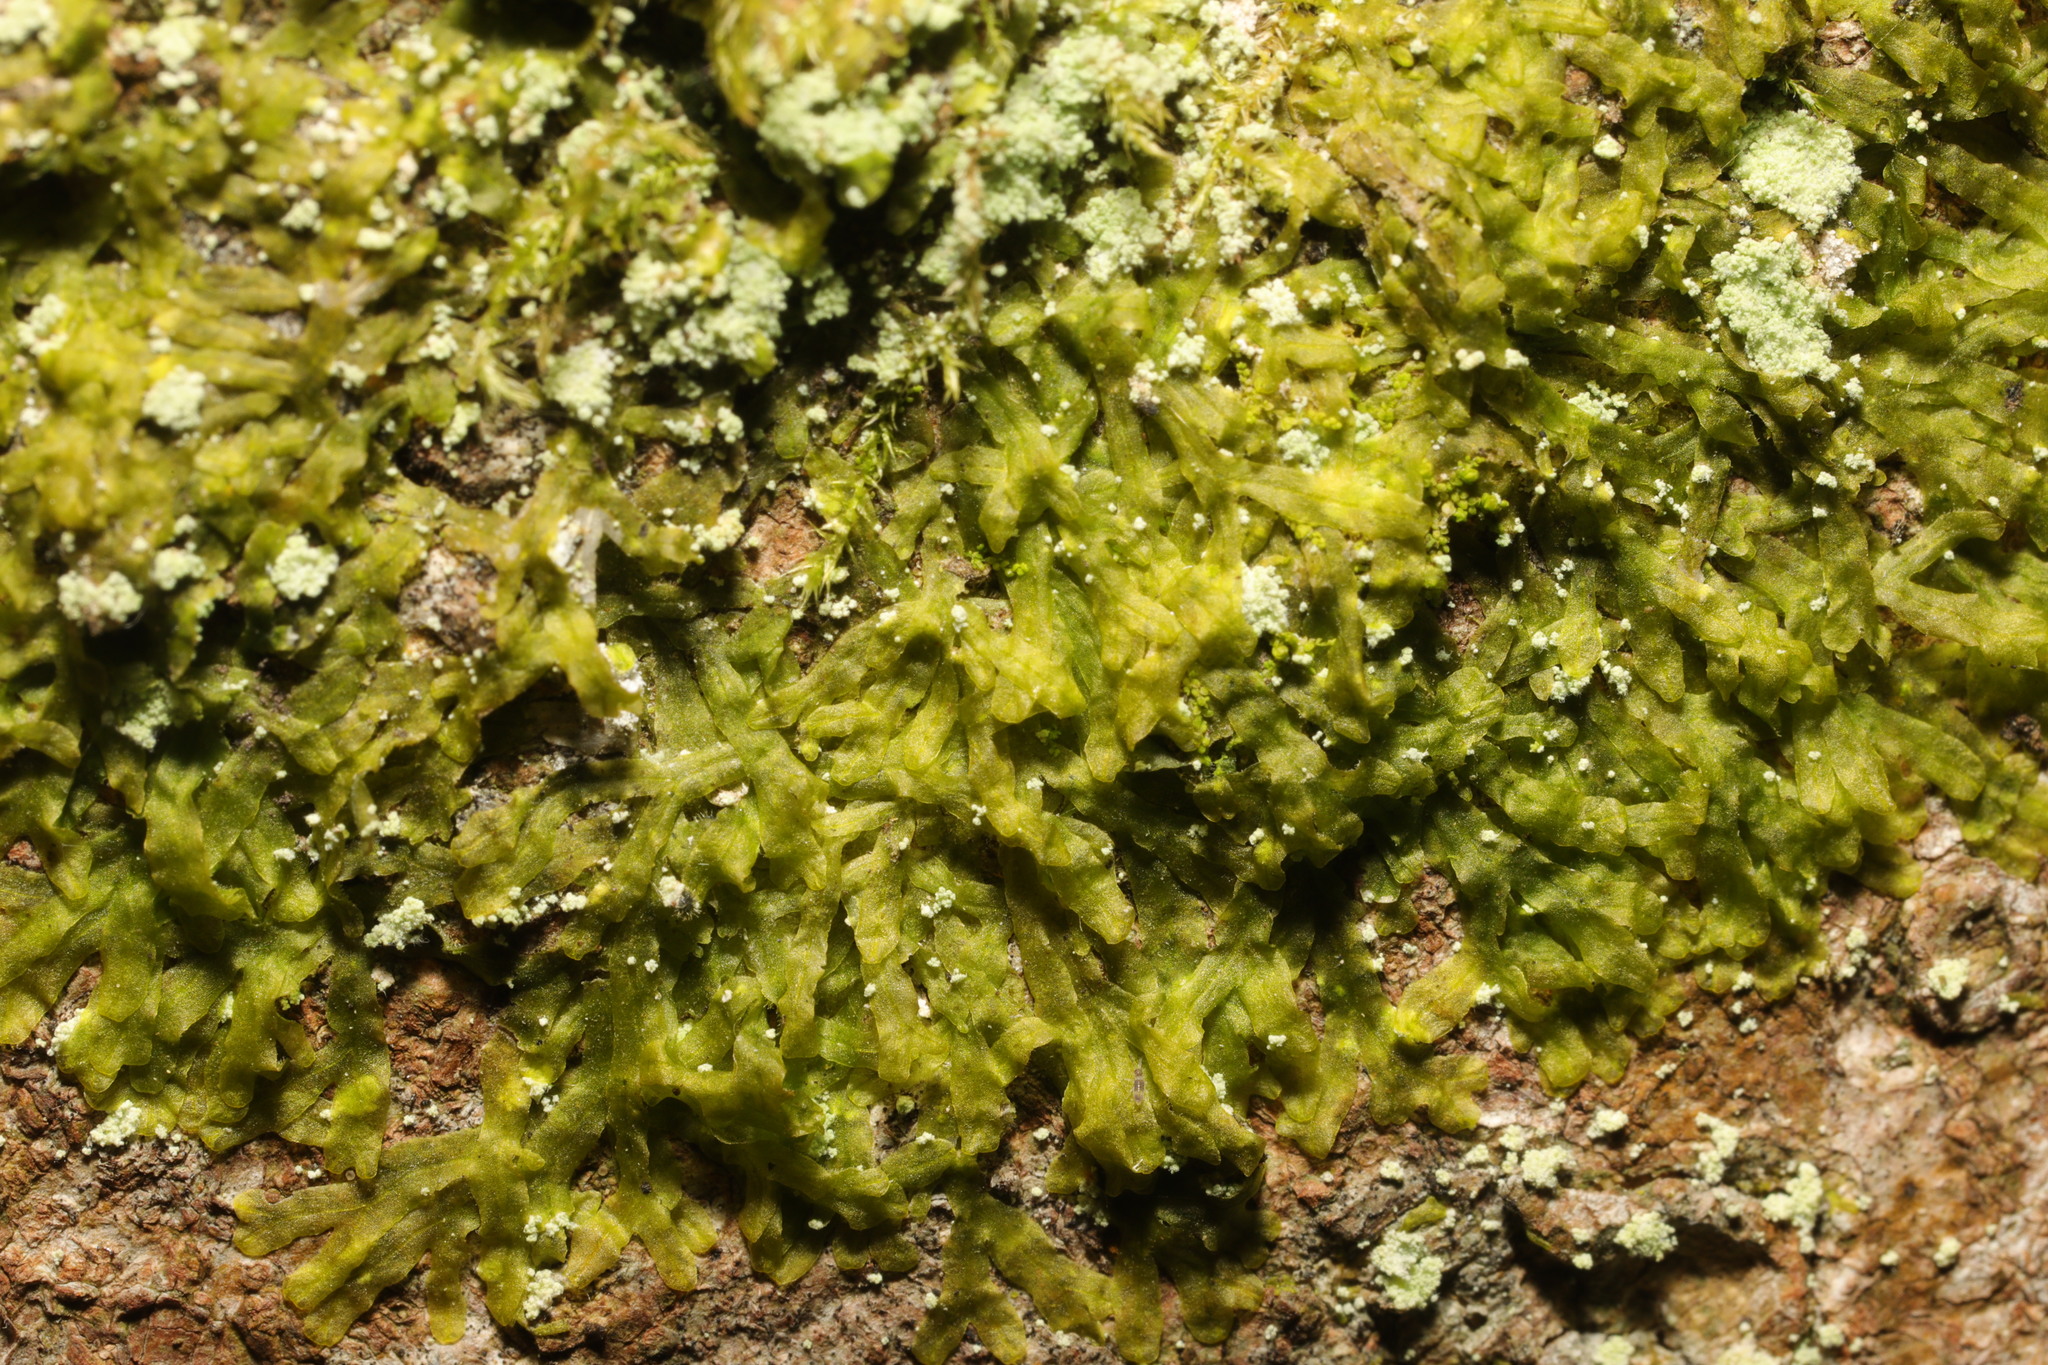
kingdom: Plantae
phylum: Marchantiophyta
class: Jungermanniopsida
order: Metzgeriales
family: Metzgeriaceae
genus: Metzgeria
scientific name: Metzgeria furcata
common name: Forked veilwort
